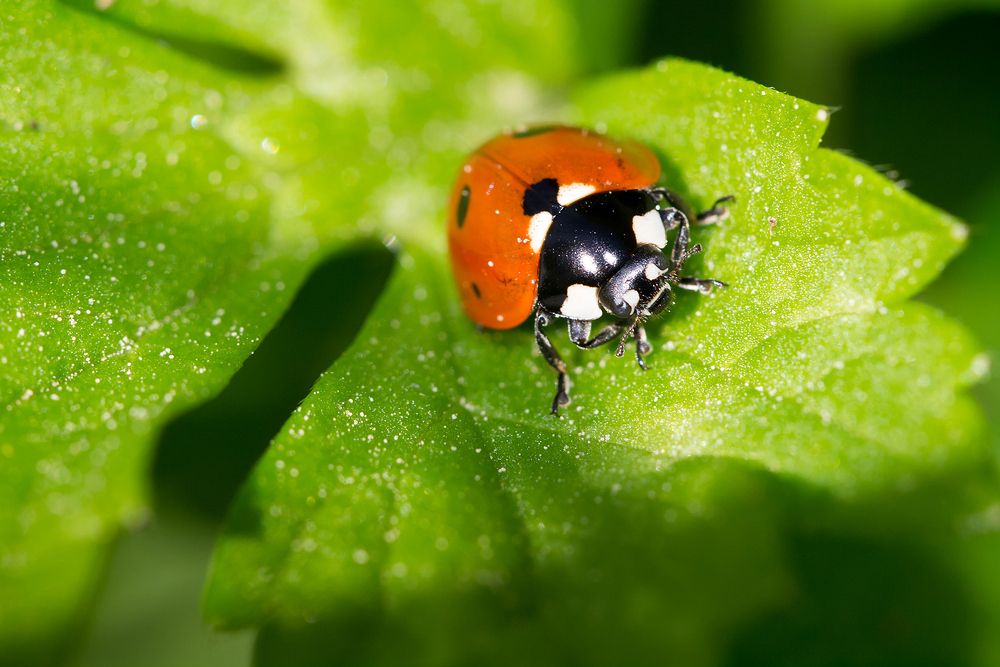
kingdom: Animalia
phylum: Arthropoda
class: Insecta
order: Coleoptera
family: Coccinellidae
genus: Coccinella
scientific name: Coccinella septempunctata
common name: Sevenspotted lady beetle
